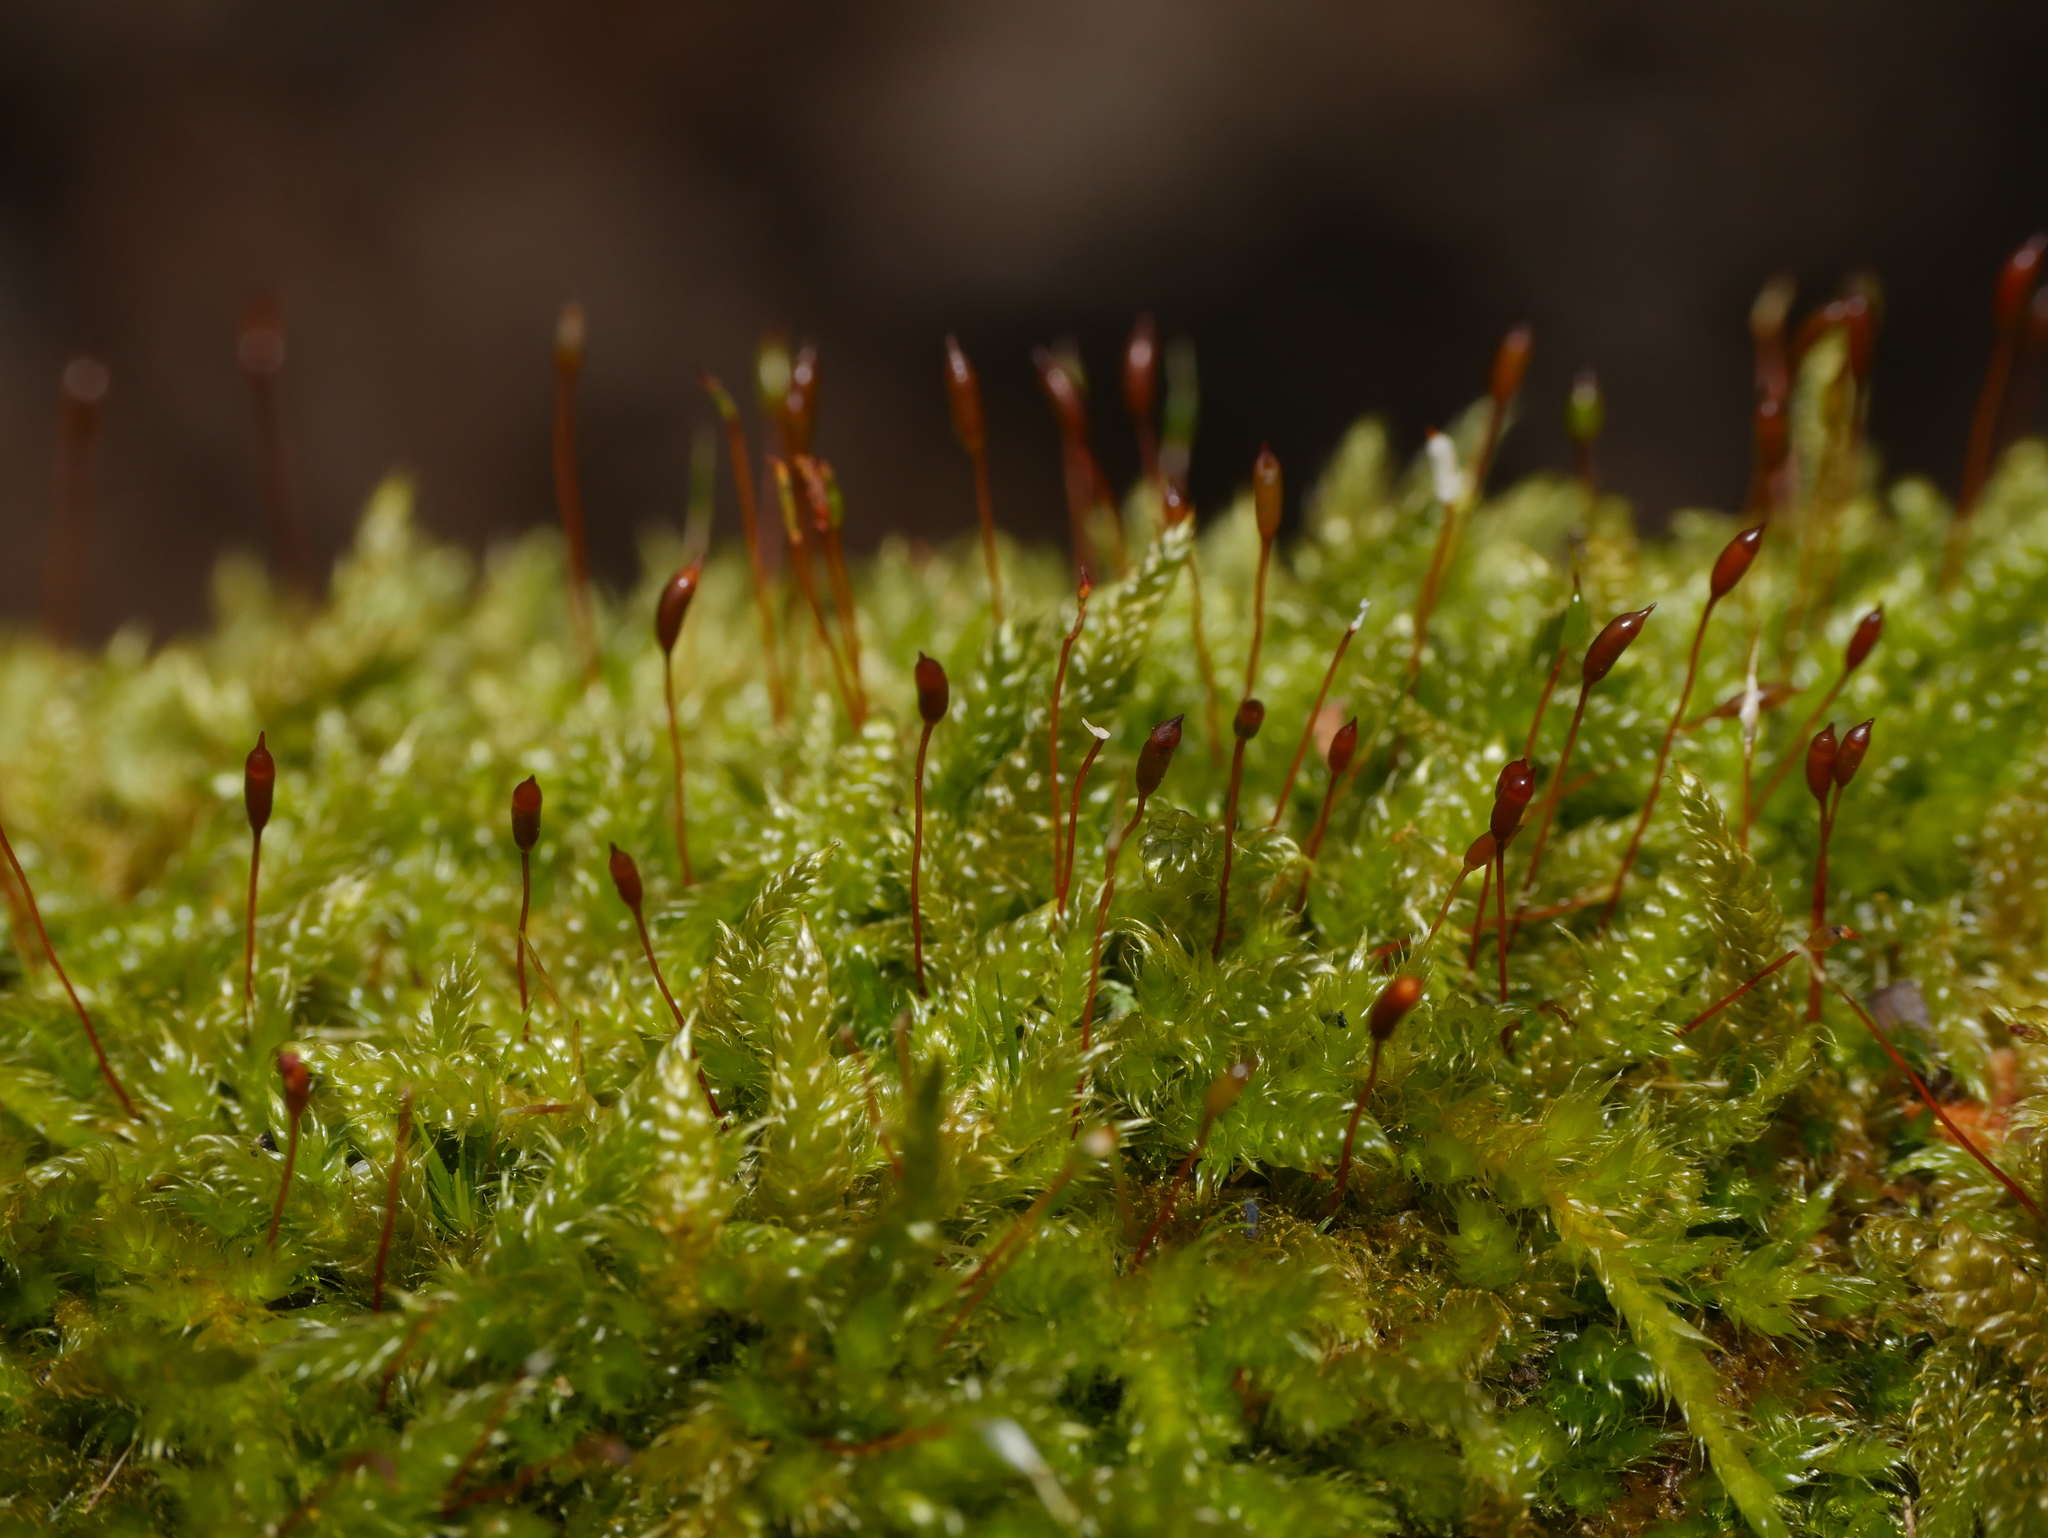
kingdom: Plantae
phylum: Bryophyta
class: Bryopsida
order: Hypnales
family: Hypnaceae
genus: Hypnum
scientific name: Hypnum cupressiforme
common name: Cypress-leaved plait-moss
